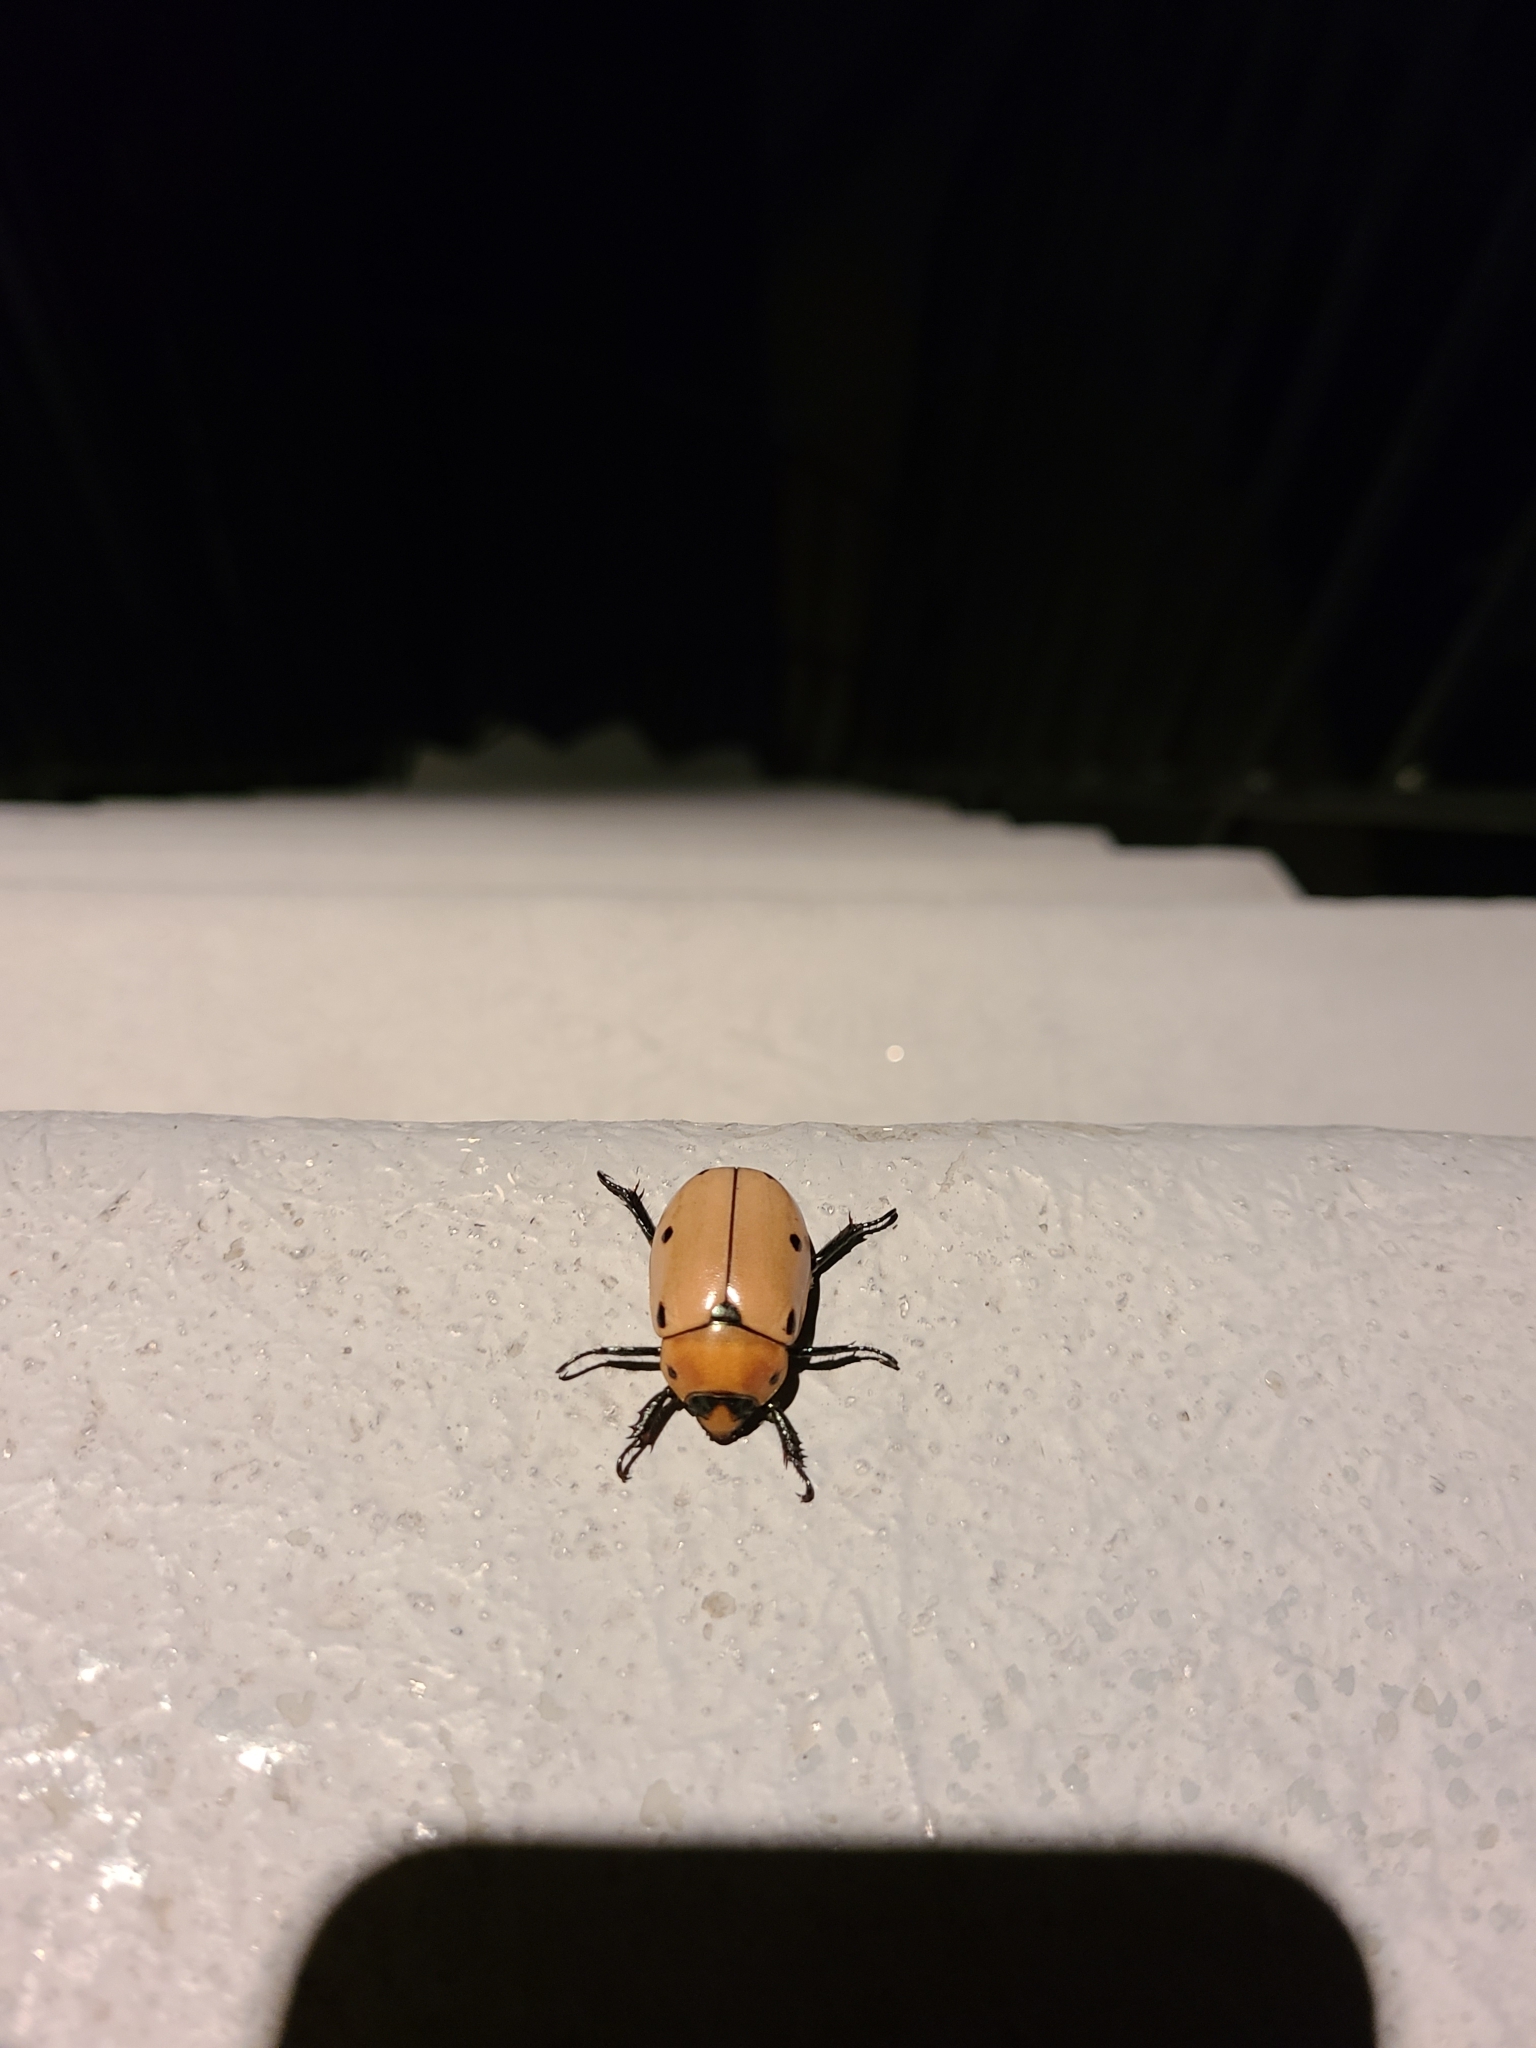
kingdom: Animalia
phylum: Arthropoda
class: Insecta
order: Coleoptera
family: Scarabaeidae
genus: Pelidnota
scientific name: Pelidnota punctata
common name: Grapevine beetle
